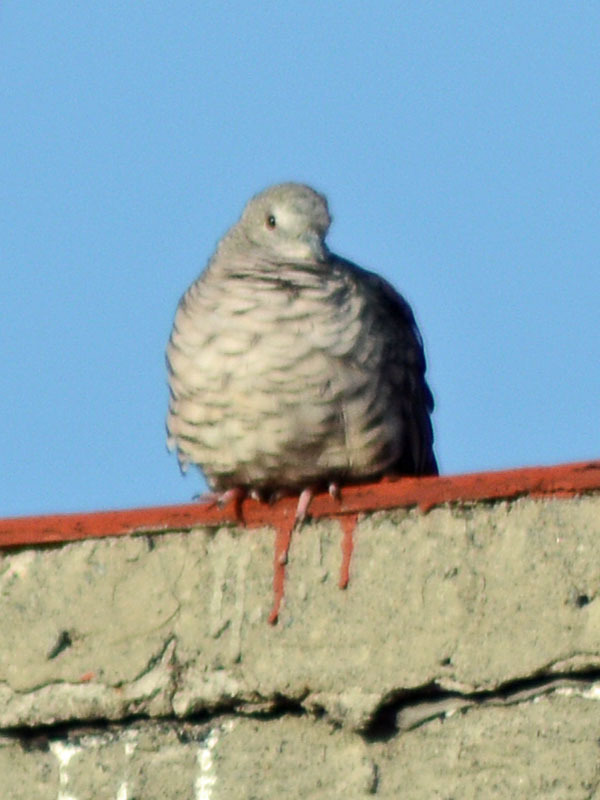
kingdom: Animalia
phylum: Chordata
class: Aves
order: Columbiformes
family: Columbidae
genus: Columbina
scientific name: Columbina inca
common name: Inca dove
